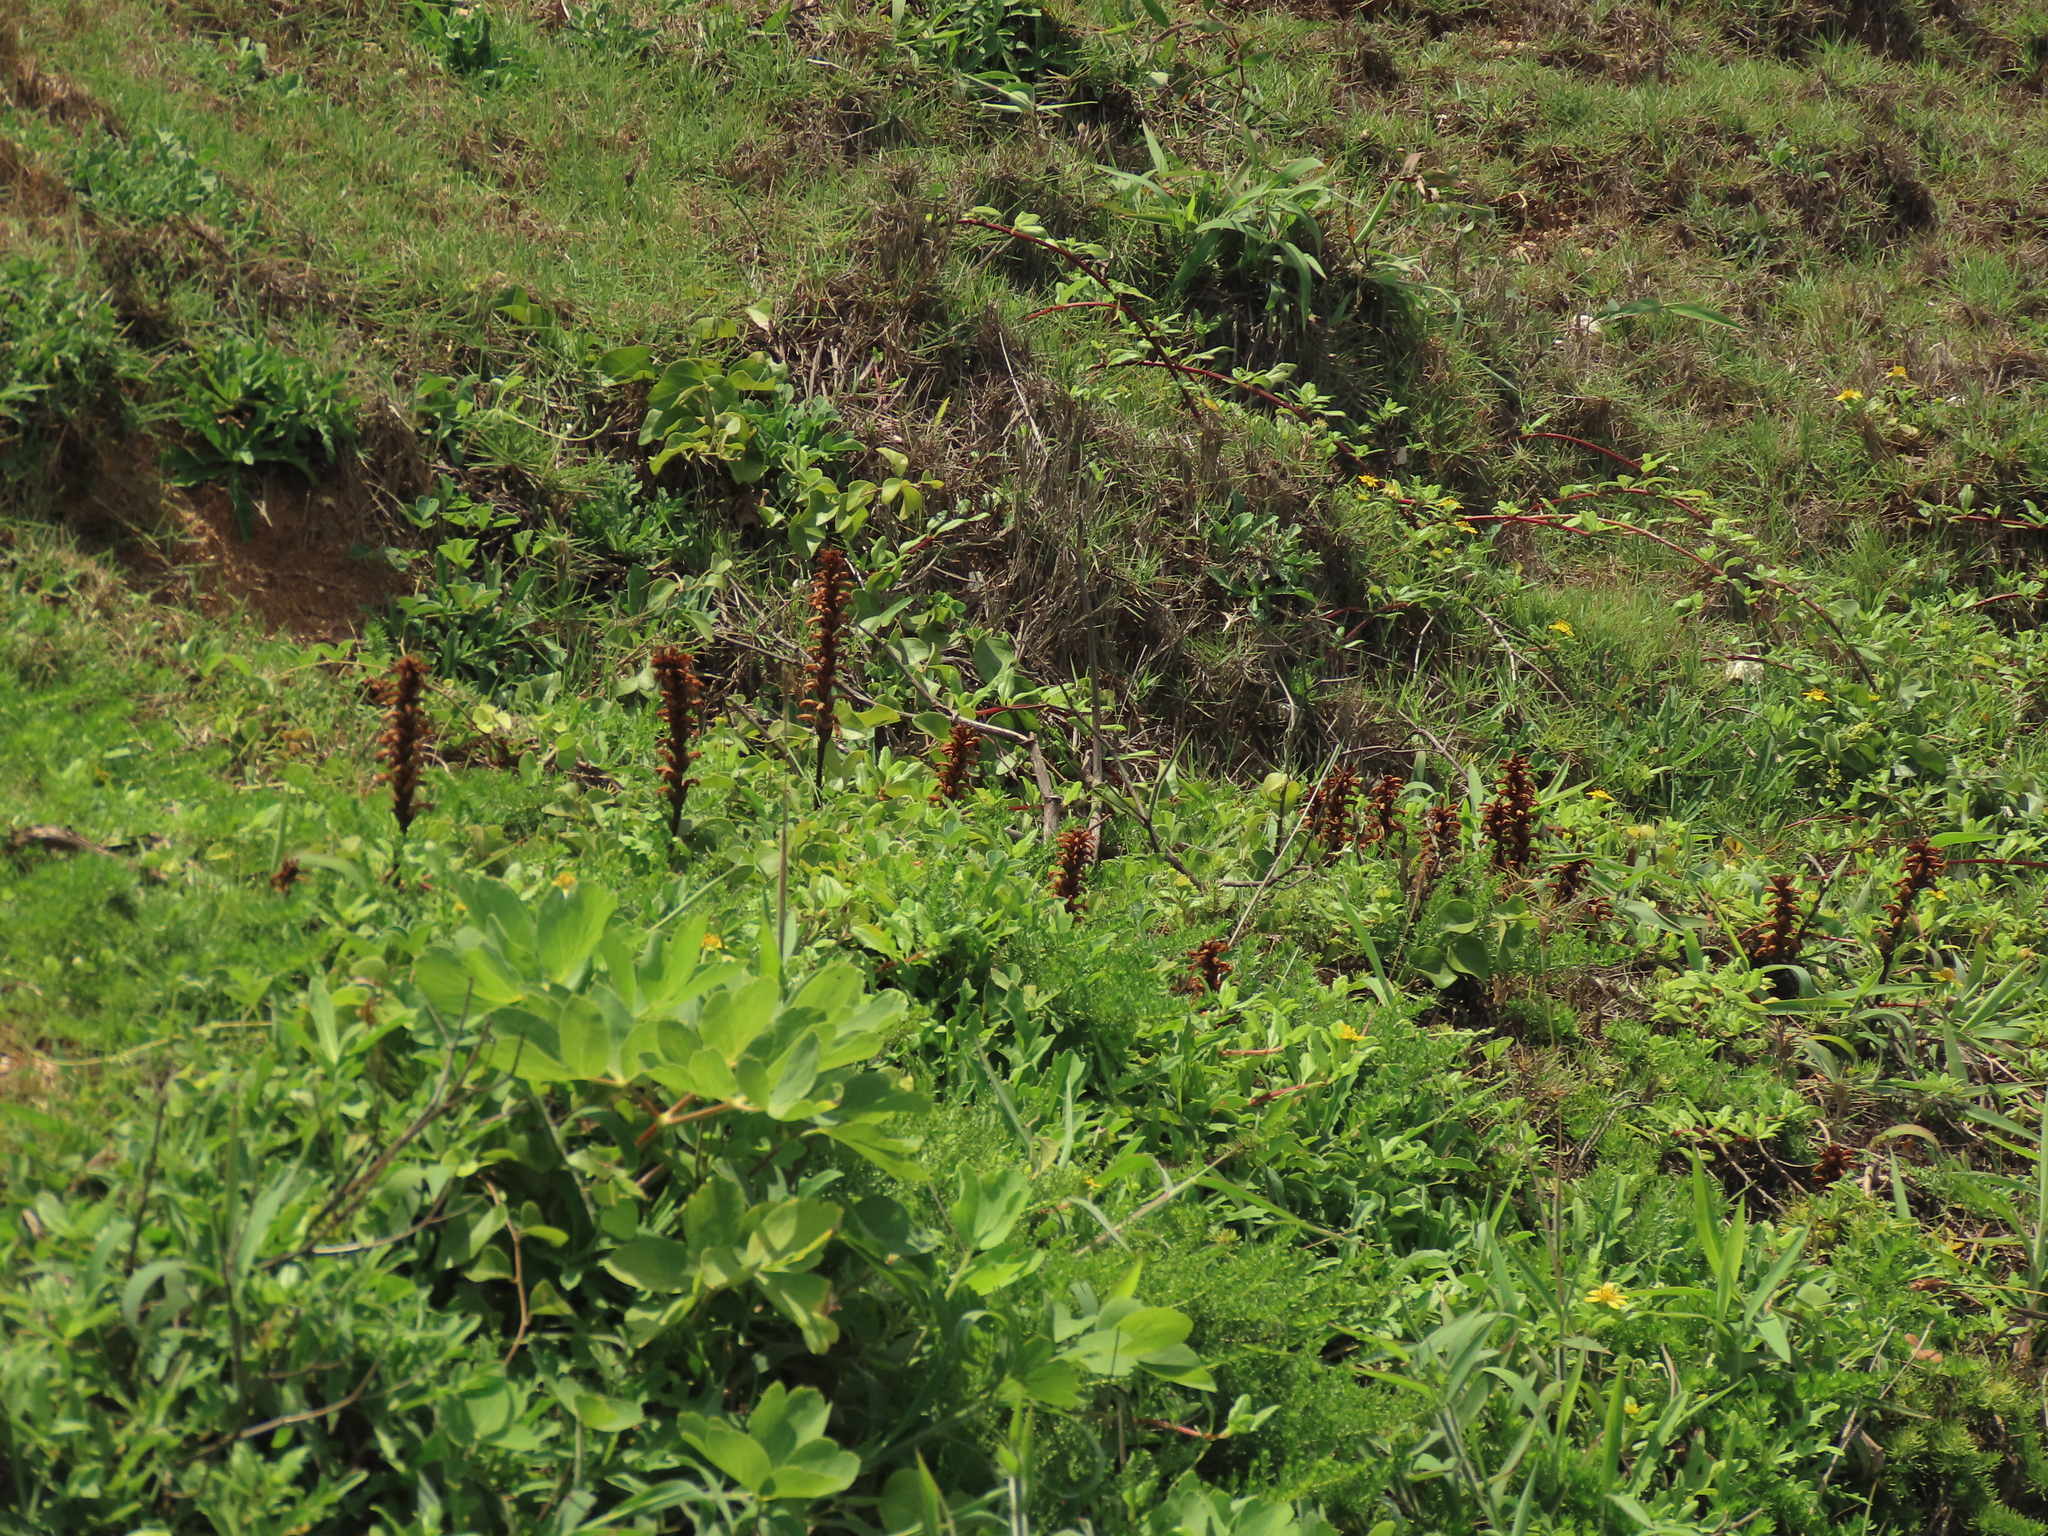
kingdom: Plantae
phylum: Tracheophyta
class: Magnoliopsida
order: Lamiales
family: Orobanchaceae
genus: Orobanche
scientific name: Orobanche coerulescens
